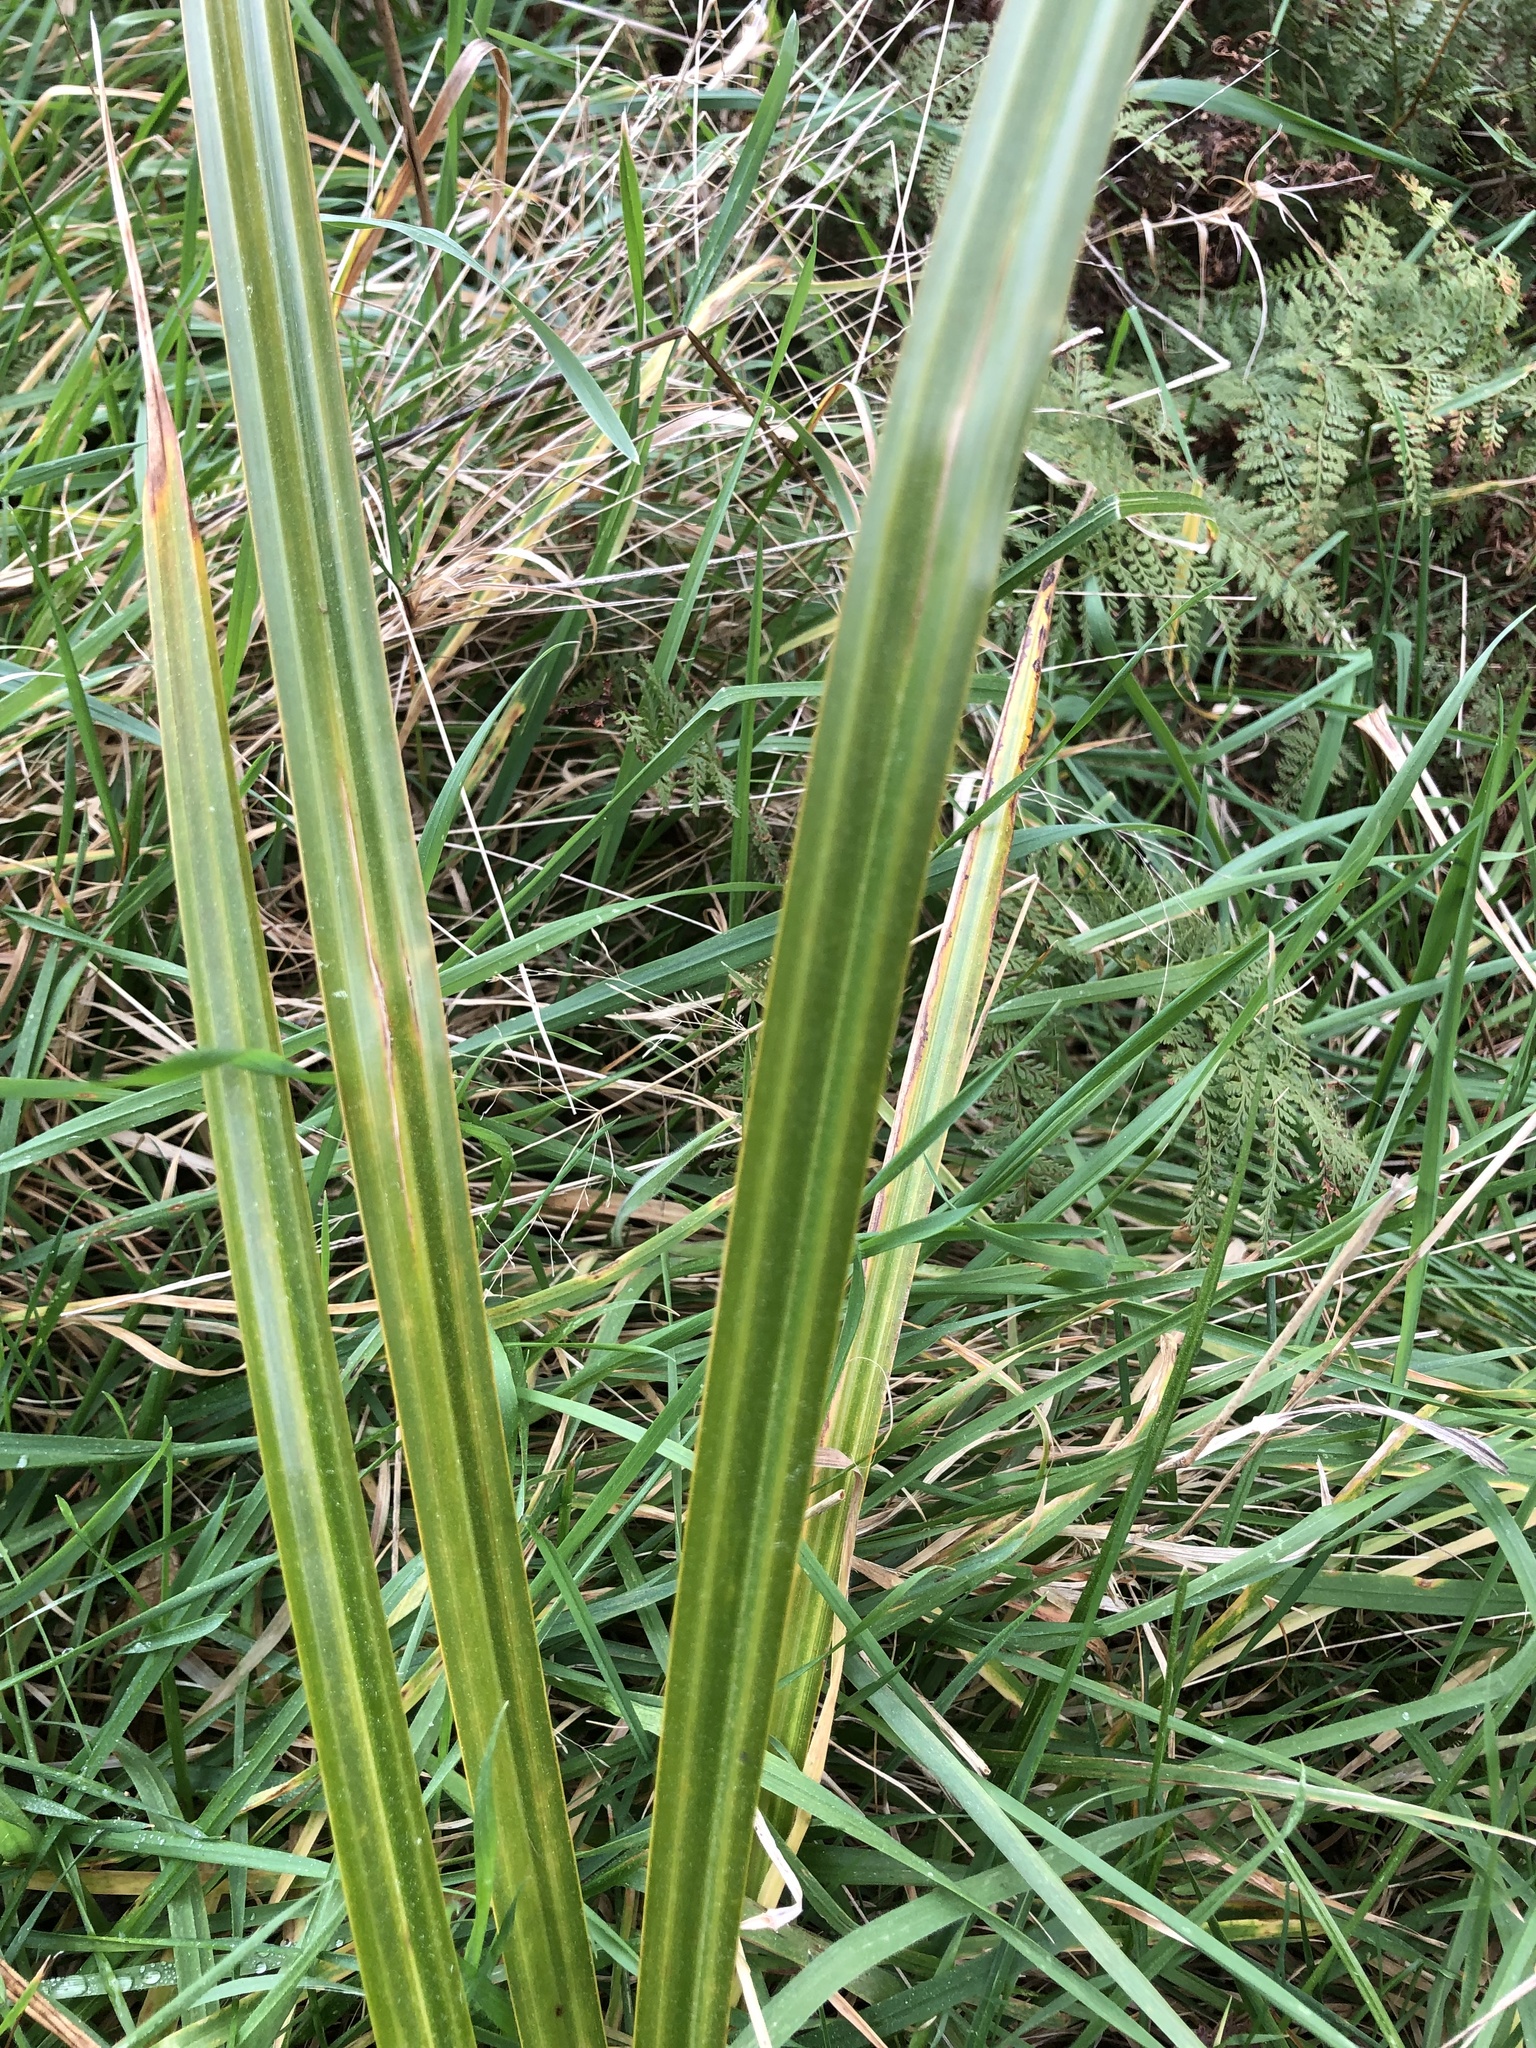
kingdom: Plantae
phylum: Tracheophyta
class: Liliopsida
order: Poales
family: Cyperaceae
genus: Carex
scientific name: Carex lessoniana
